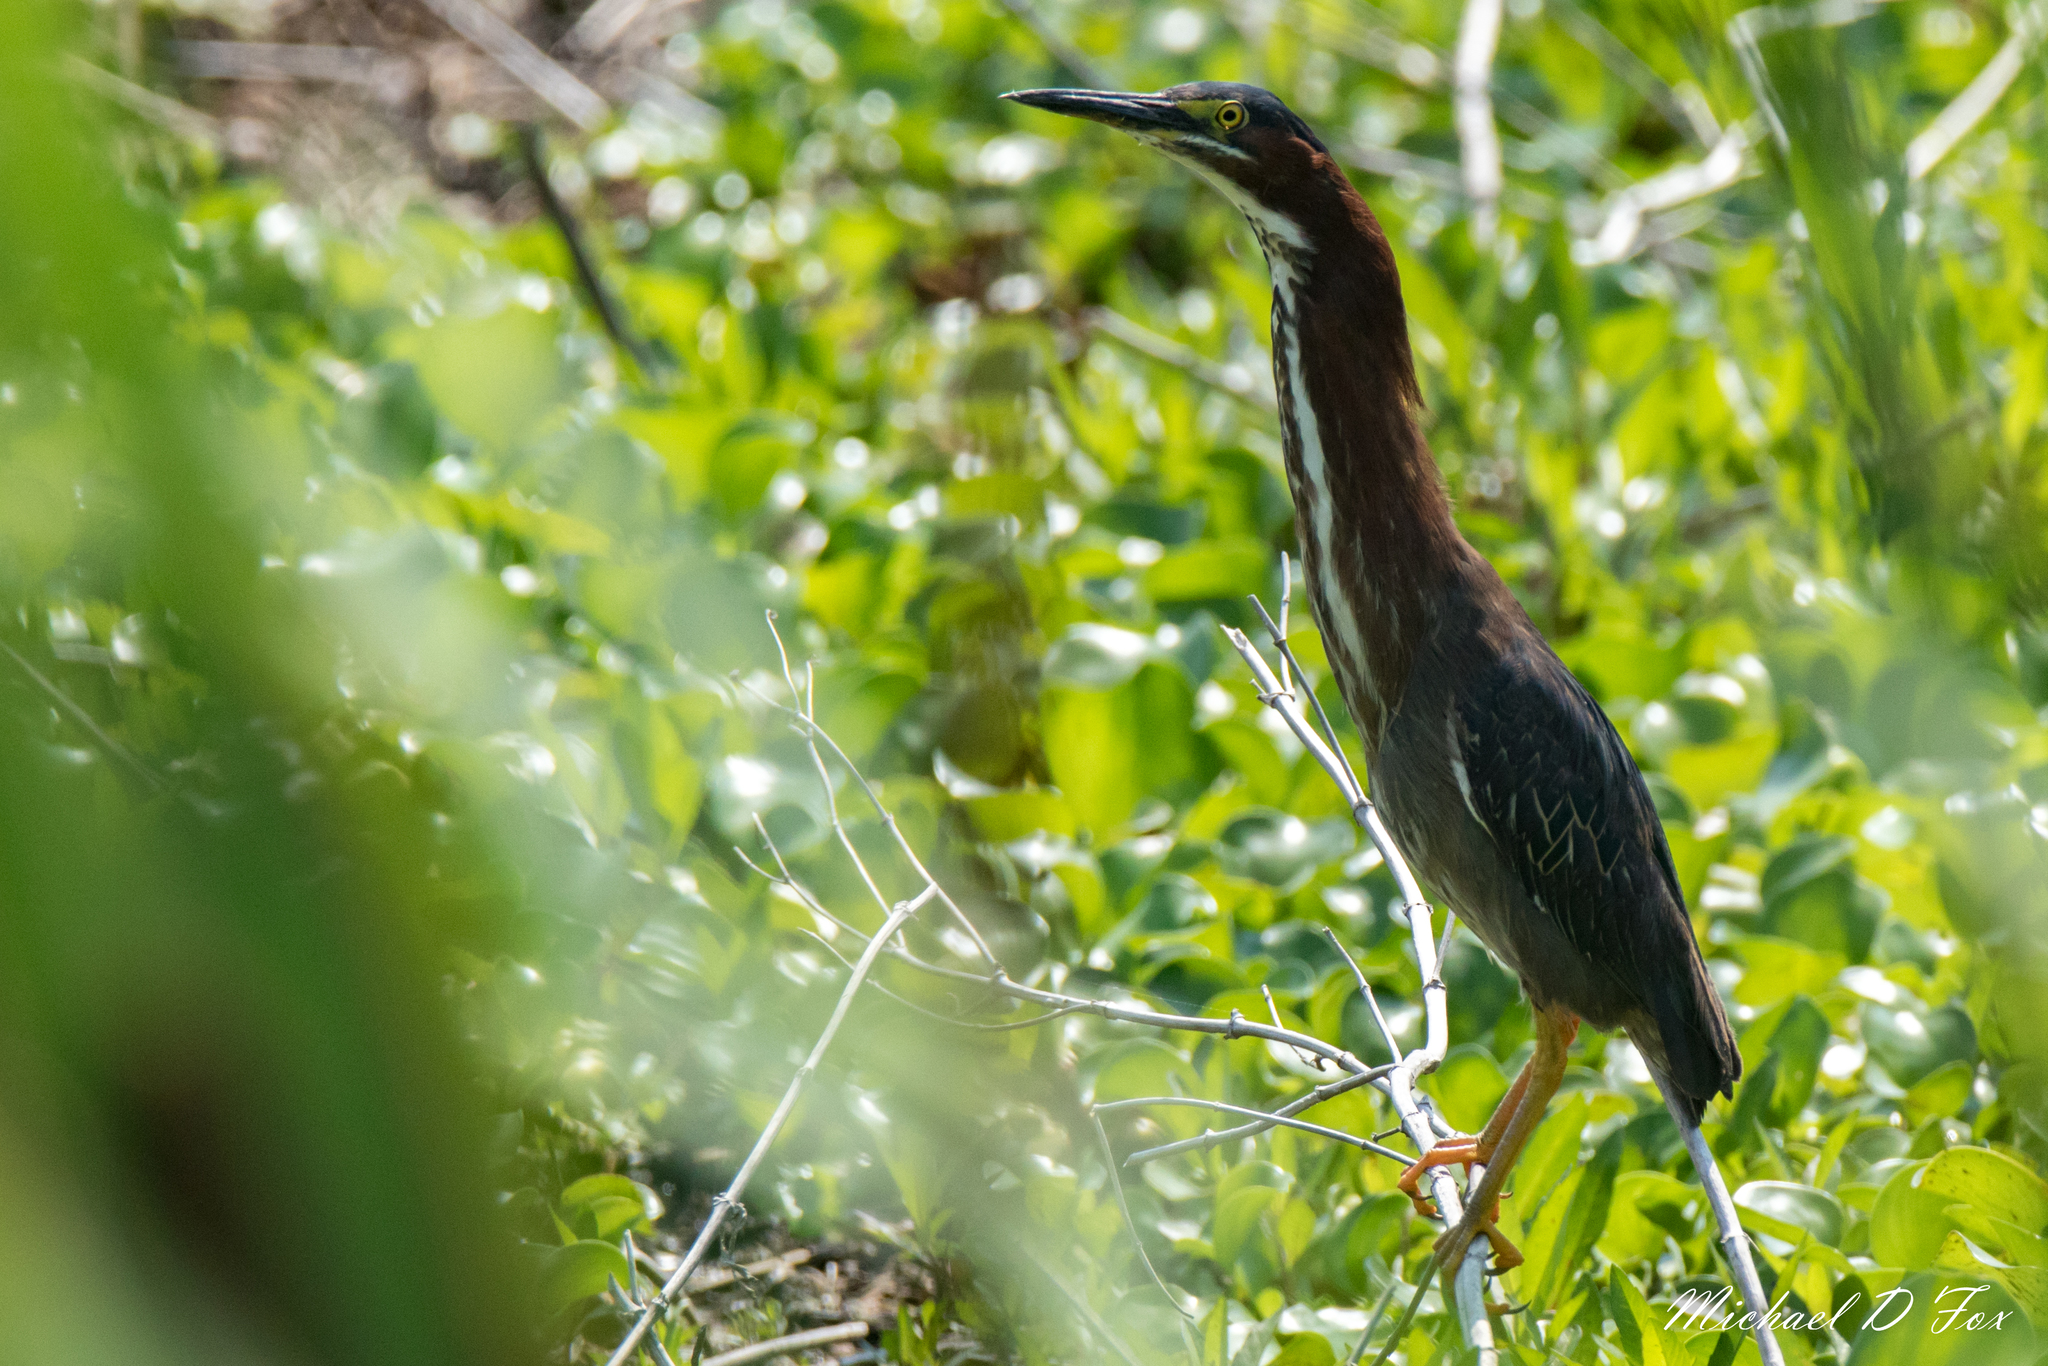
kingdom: Animalia
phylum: Chordata
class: Aves
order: Pelecaniformes
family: Ardeidae
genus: Butorides
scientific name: Butorides virescens
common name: Green heron
